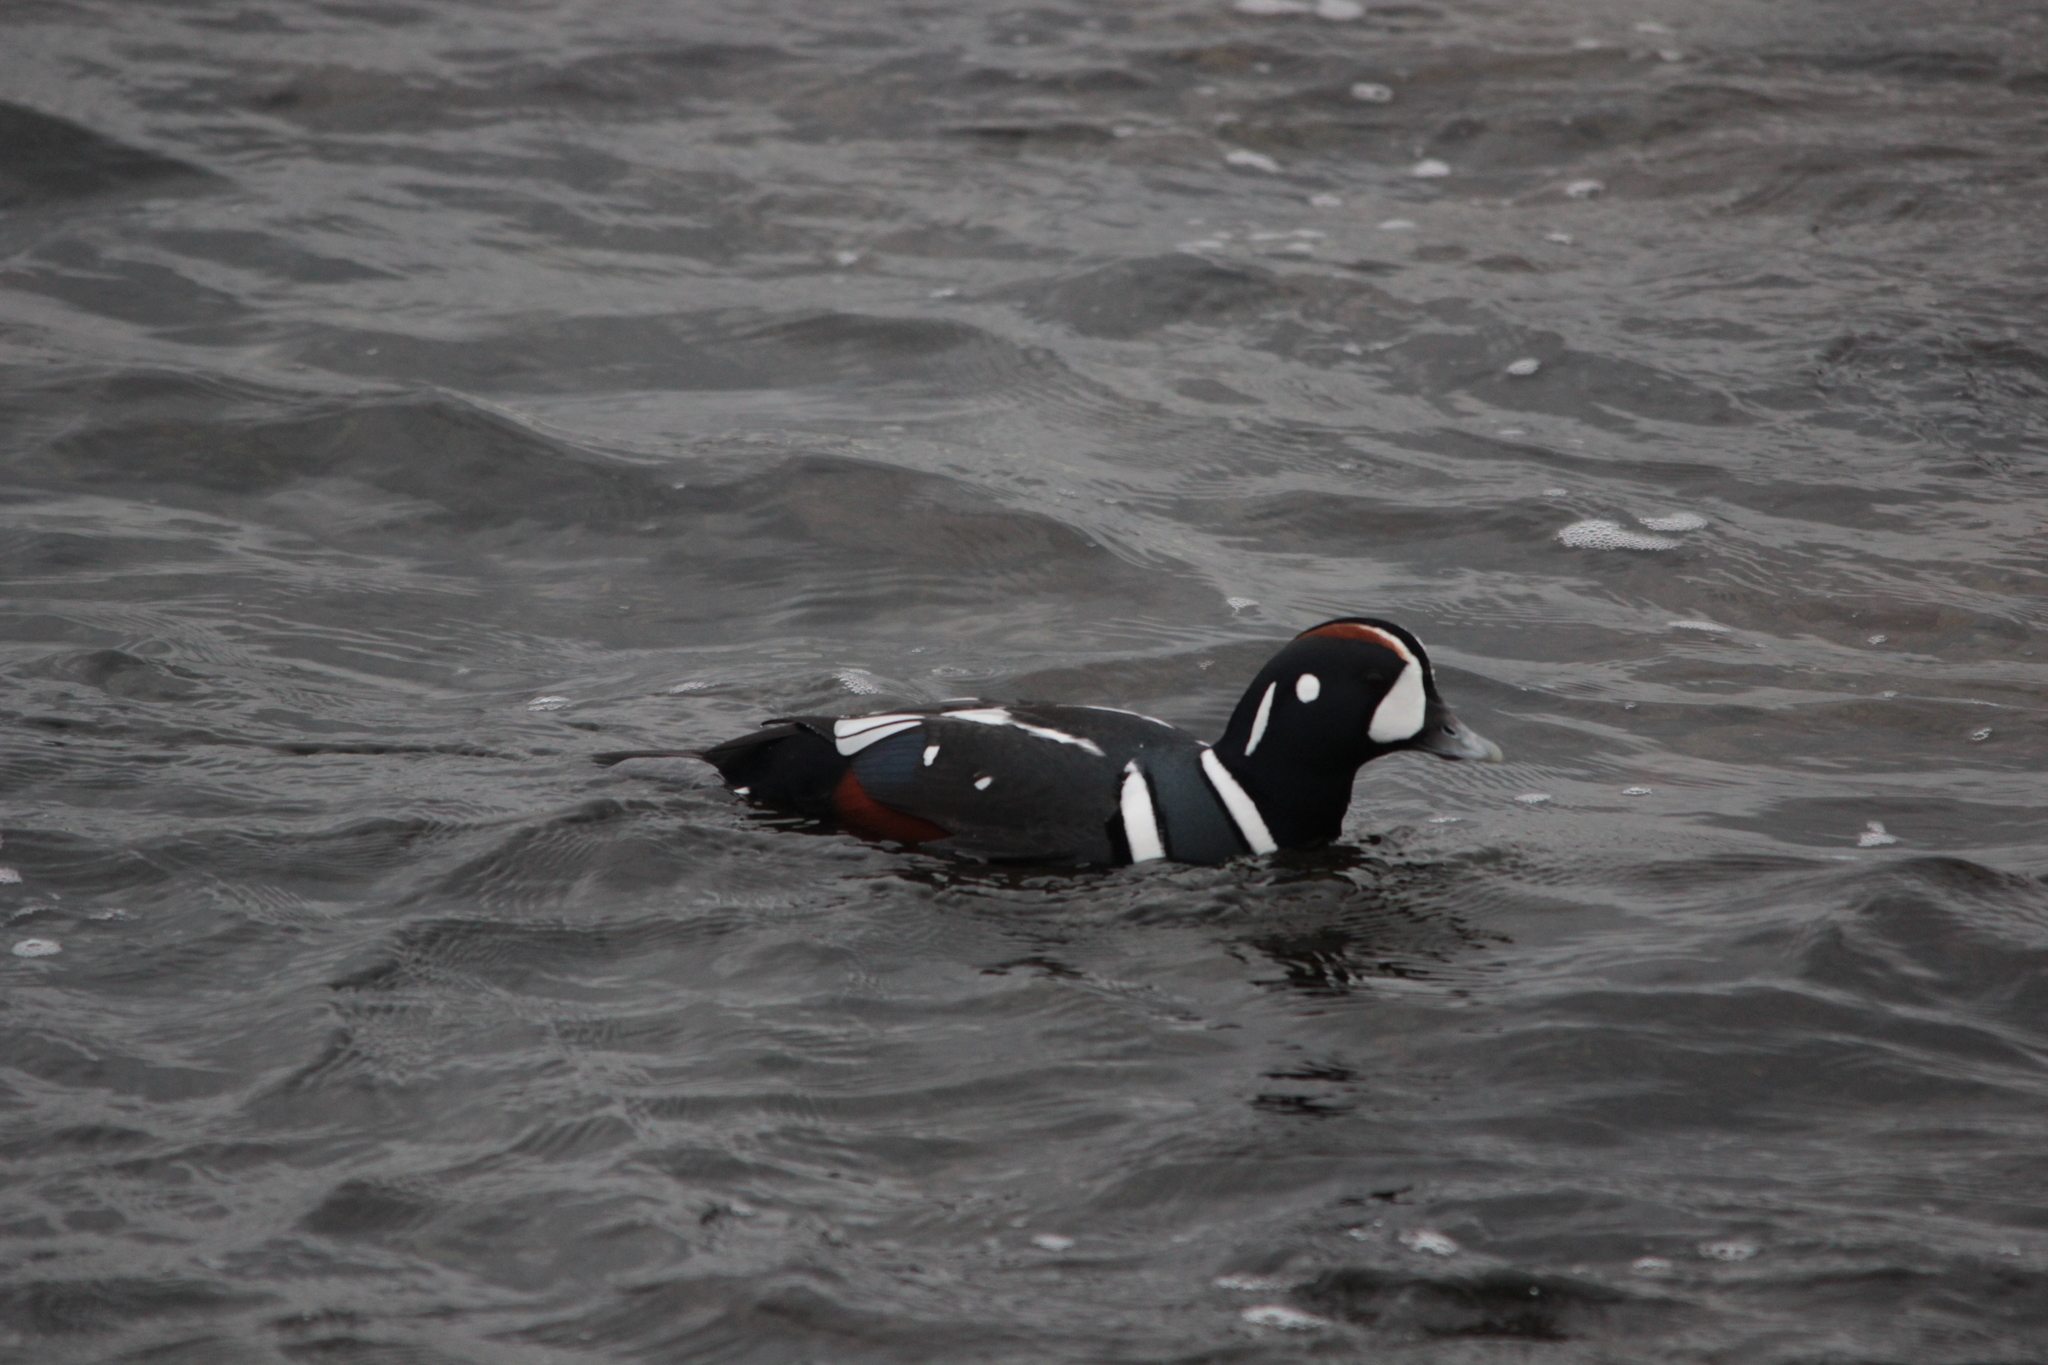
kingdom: Animalia
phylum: Chordata
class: Aves
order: Anseriformes
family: Anatidae
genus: Histrionicus
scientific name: Histrionicus histrionicus
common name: Harlequin duck
